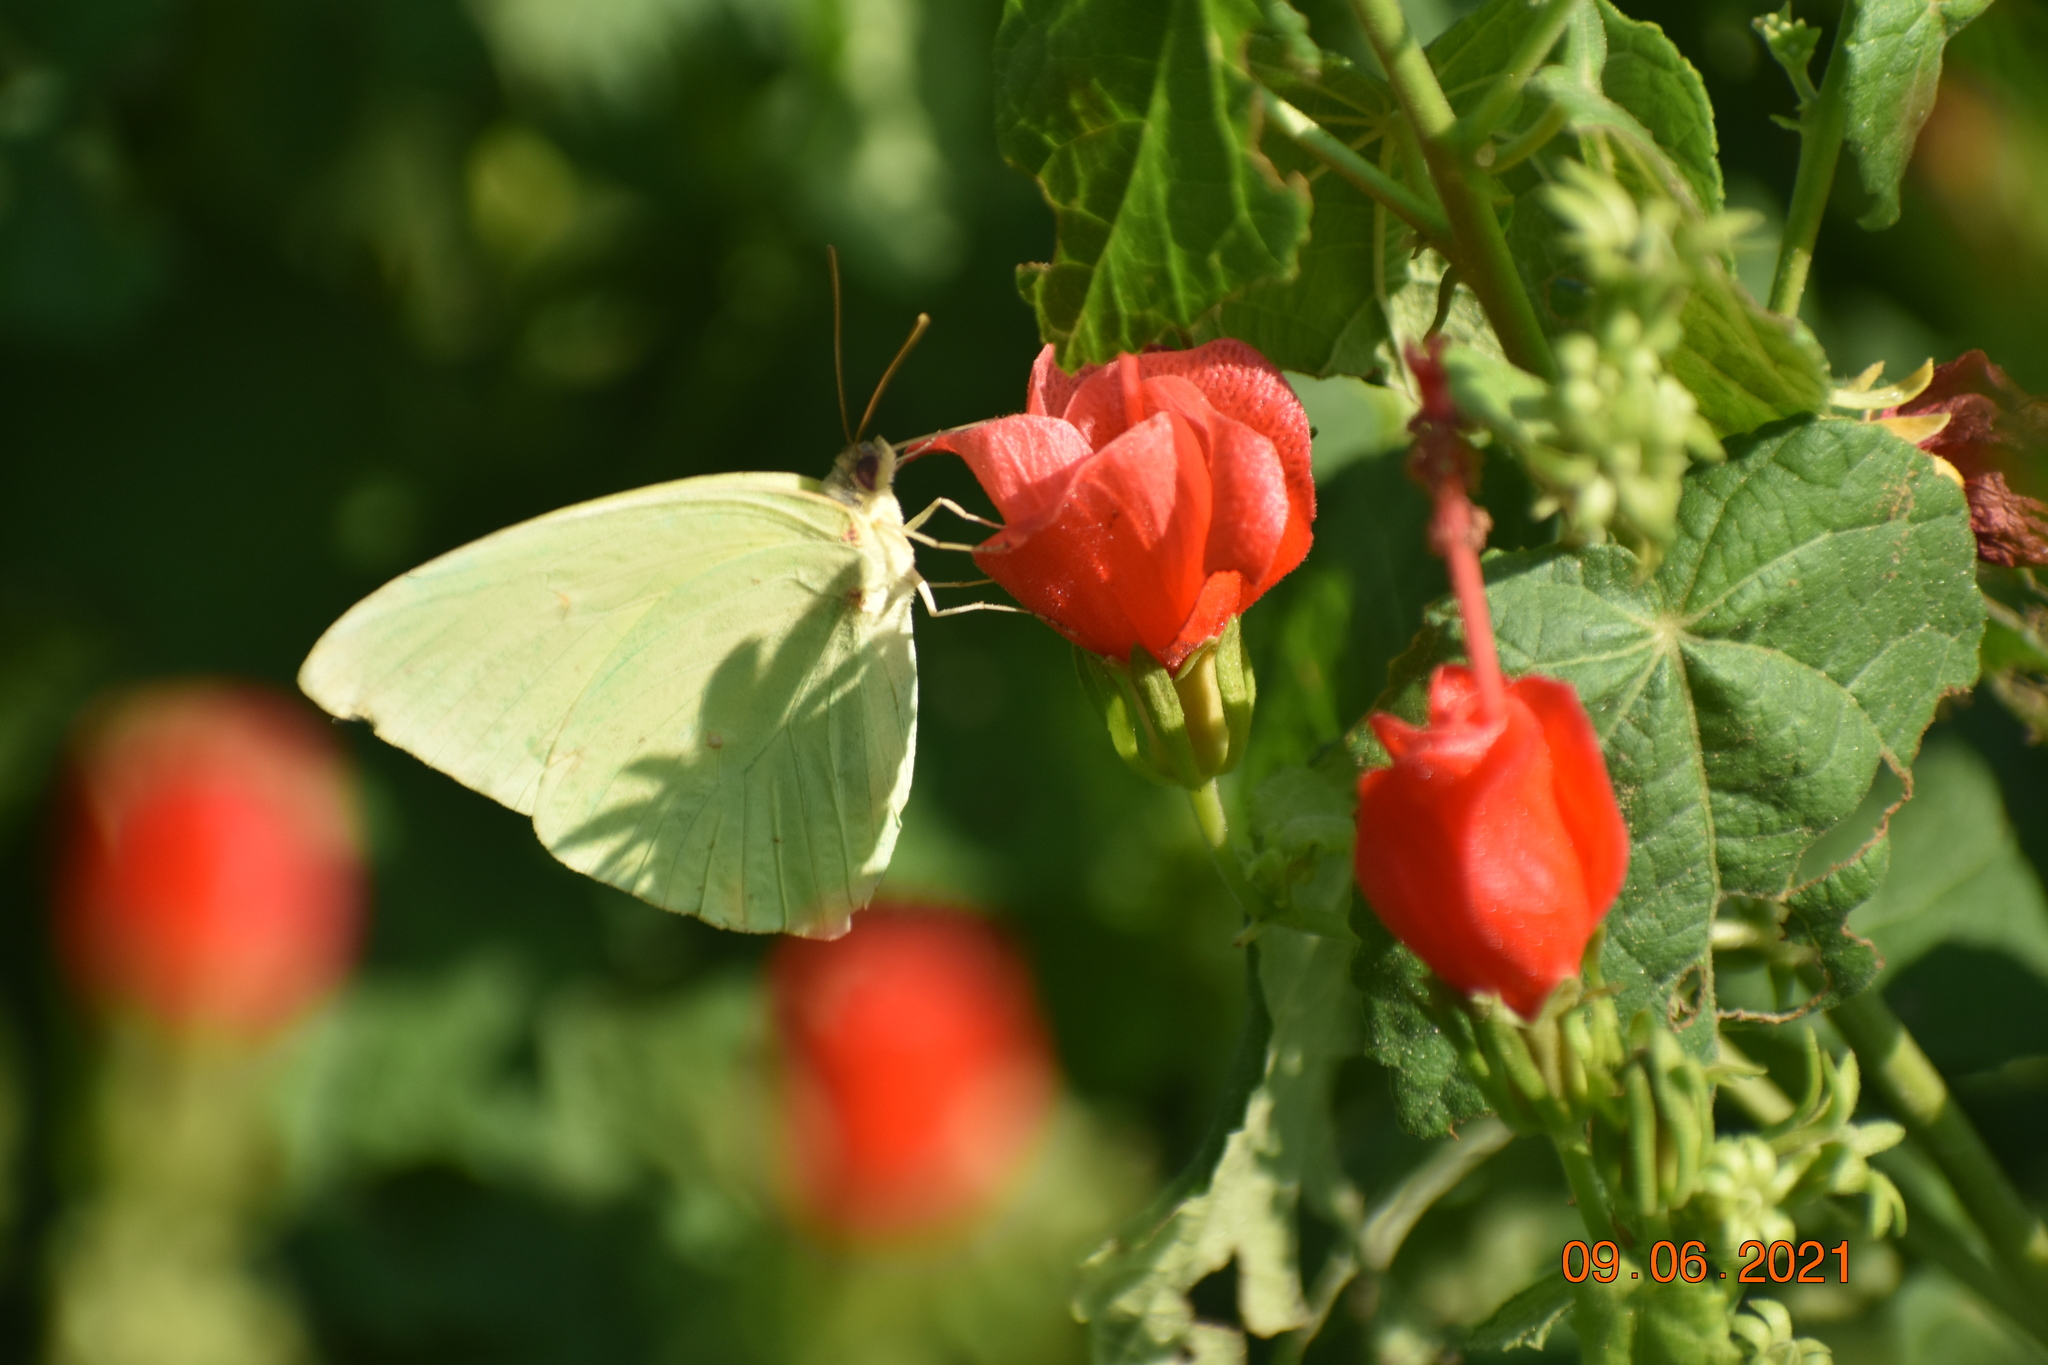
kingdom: Animalia
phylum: Arthropoda
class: Insecta
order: Lepidoptera
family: Pieridae
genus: Phoebis
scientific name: Phoebis sennae
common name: Cloudless sulphur
